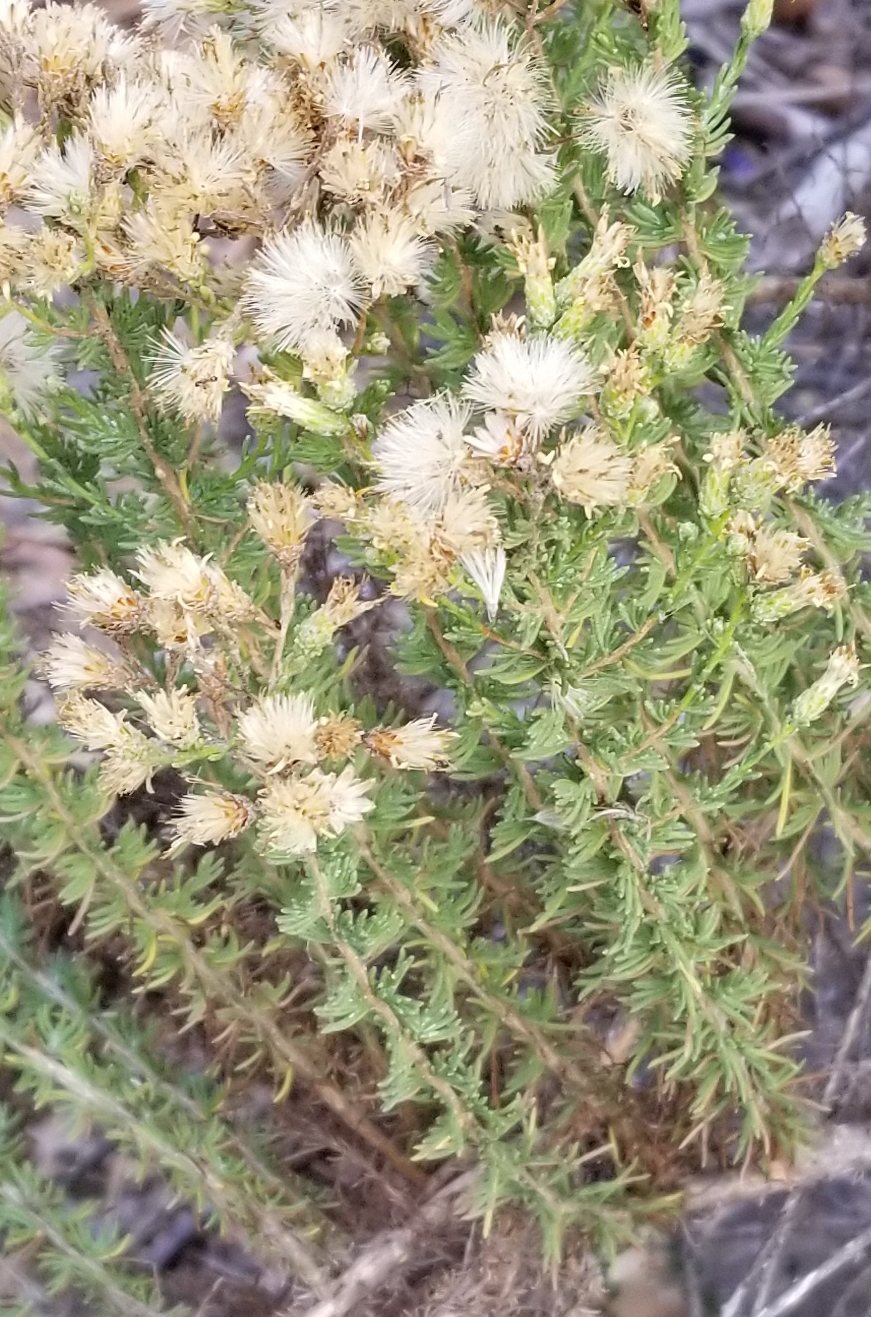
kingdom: Plantae
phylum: Tracheophyta
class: Magnoliopsida
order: Asterales
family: Asteraceae
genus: Ericameria
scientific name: Ericameria ericoides
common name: California goldenbush
